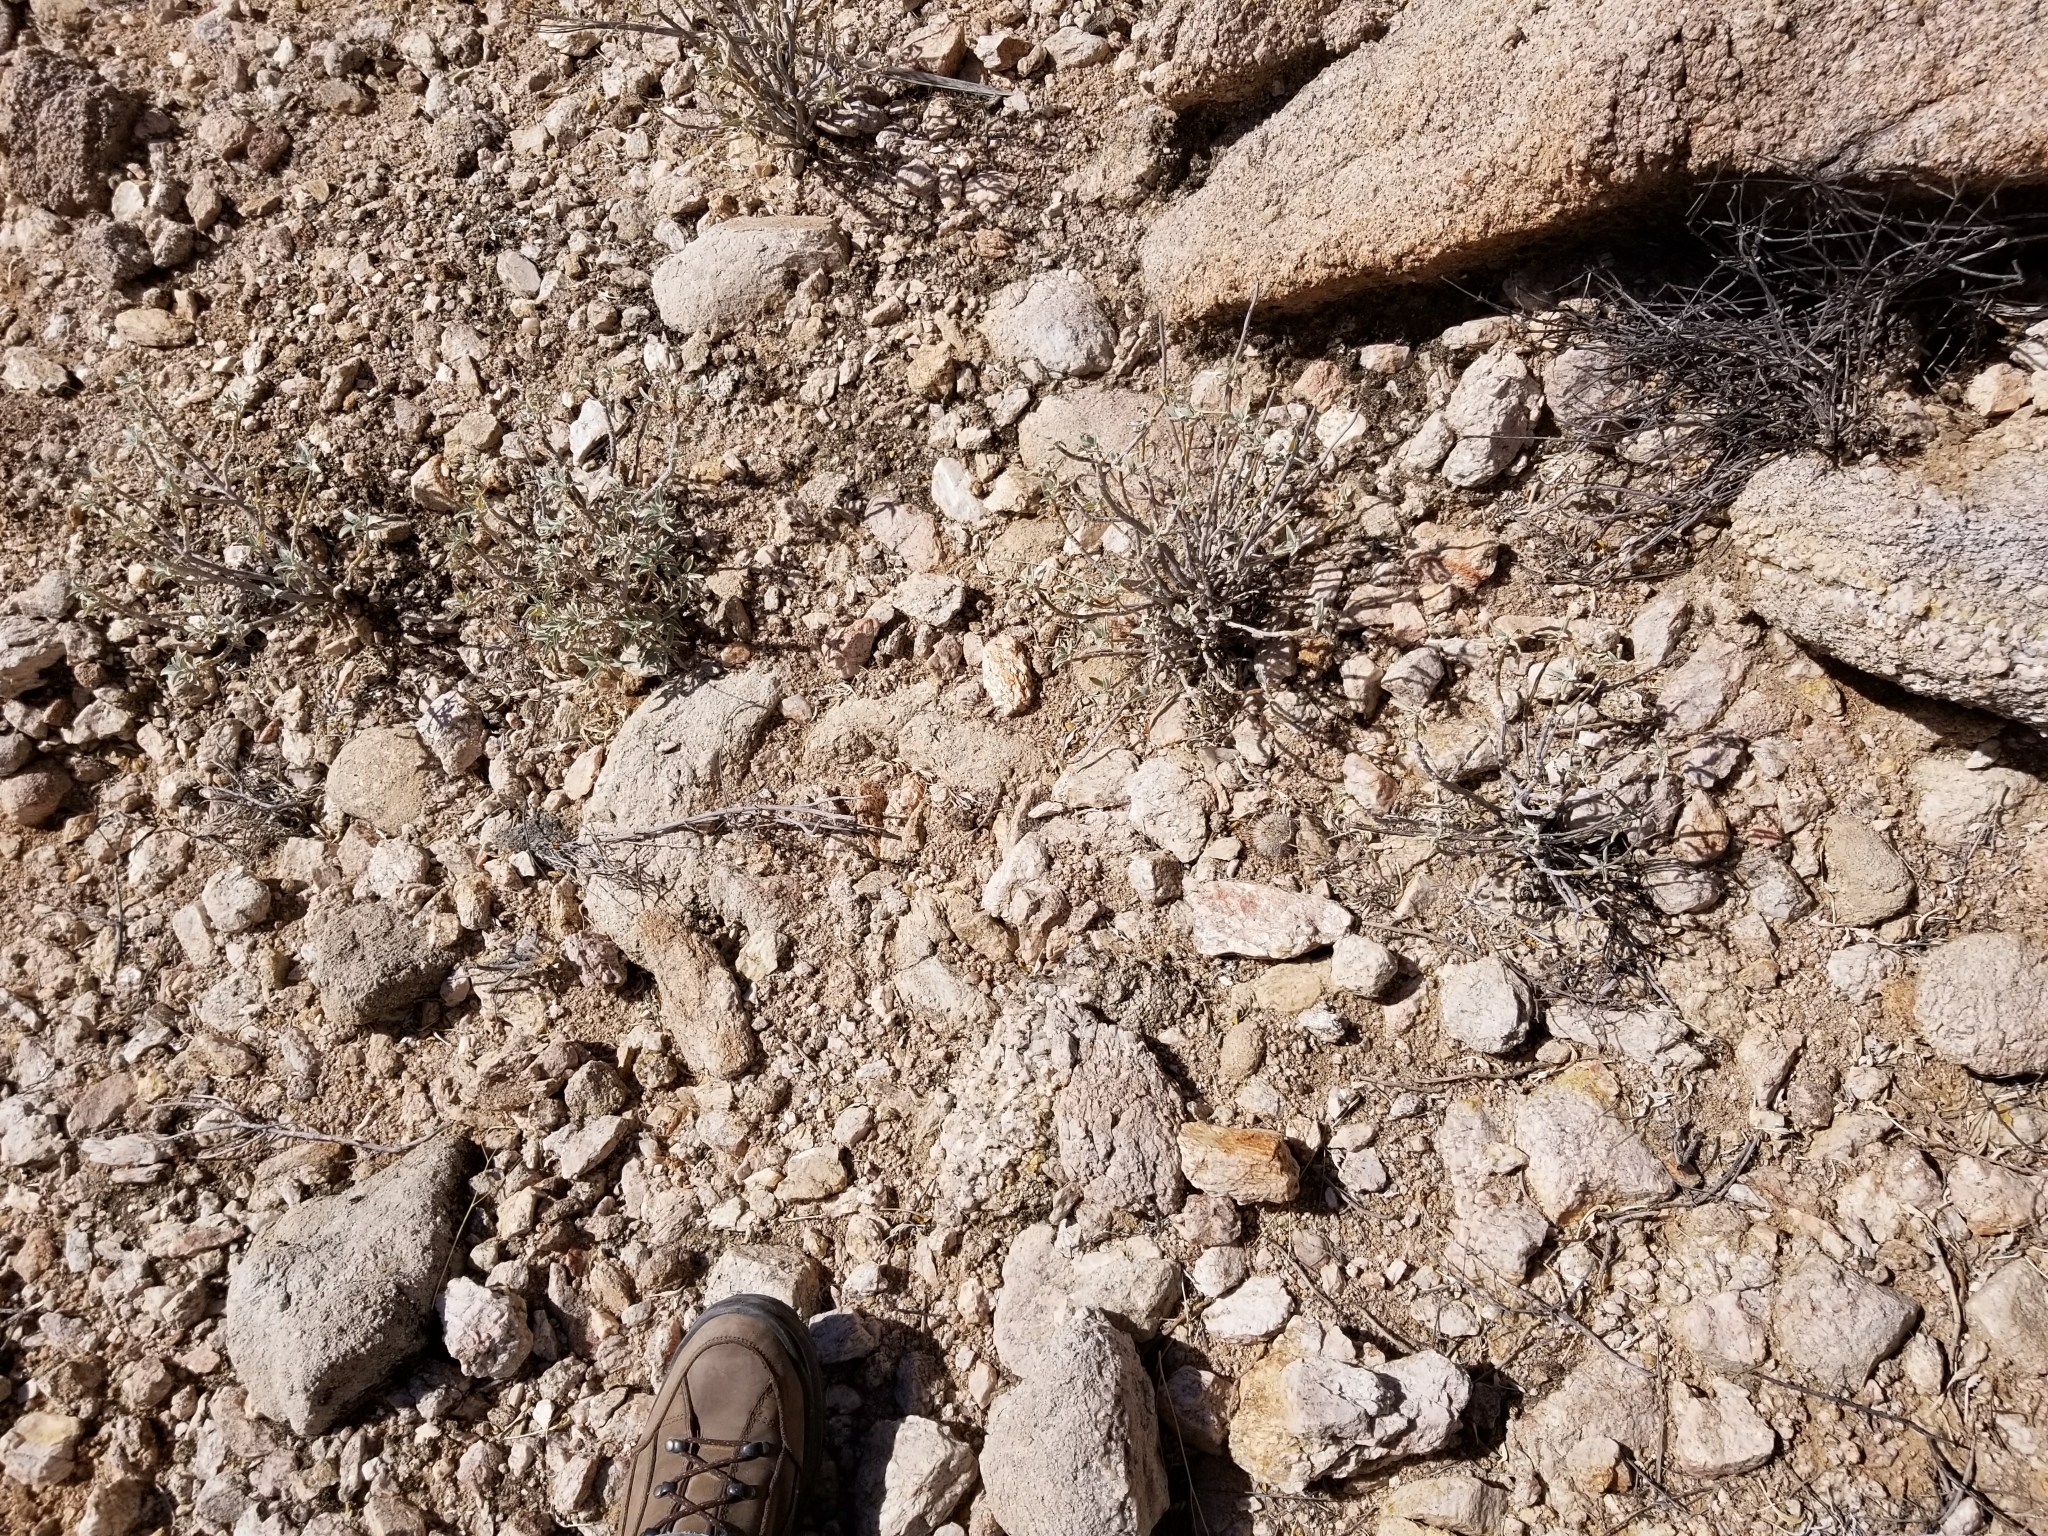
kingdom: Plantae
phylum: Tracheophyta
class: Magnoliopsida
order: Caryophyllales
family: Cactaceae
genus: Cochemiea
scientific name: Cochemiea grahamii
